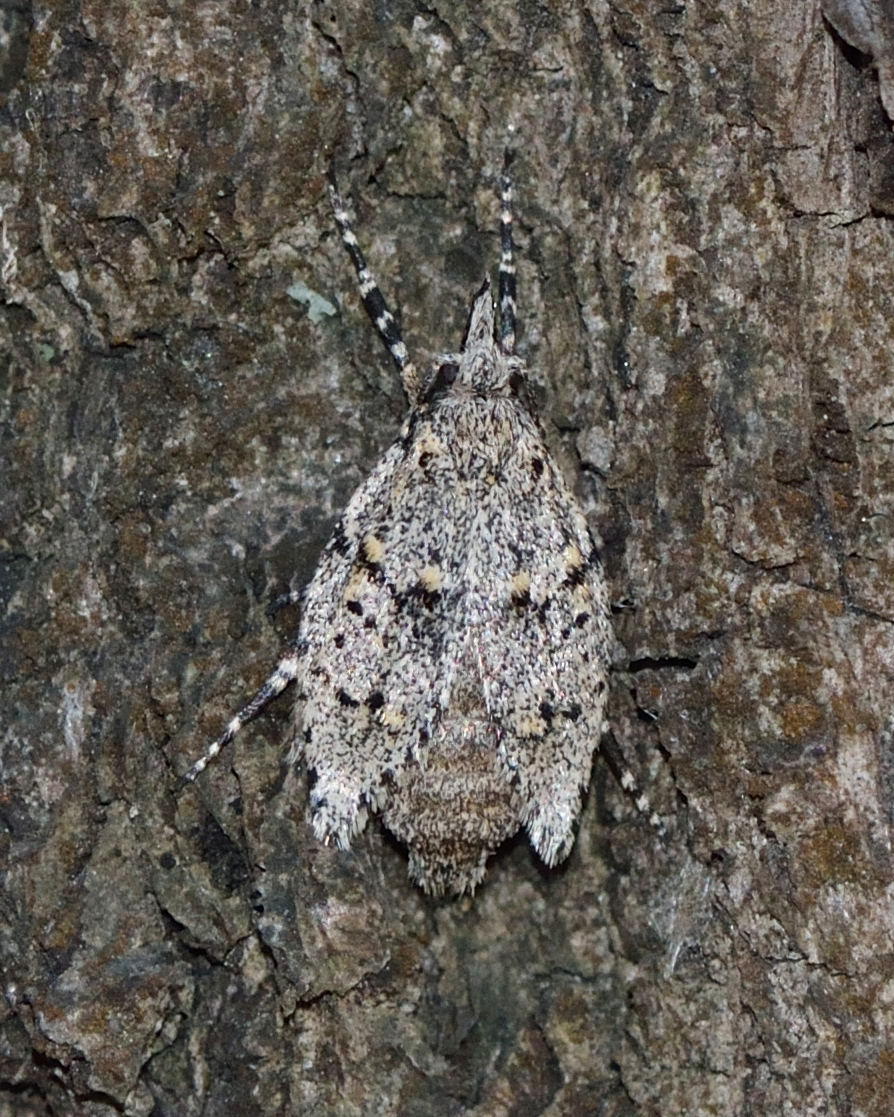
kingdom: Animalia
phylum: Arthropoda
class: Insecta
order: Lepidoptera
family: Lypusidae
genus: Diurnea
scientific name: Diurnea fagella
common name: March tubic
